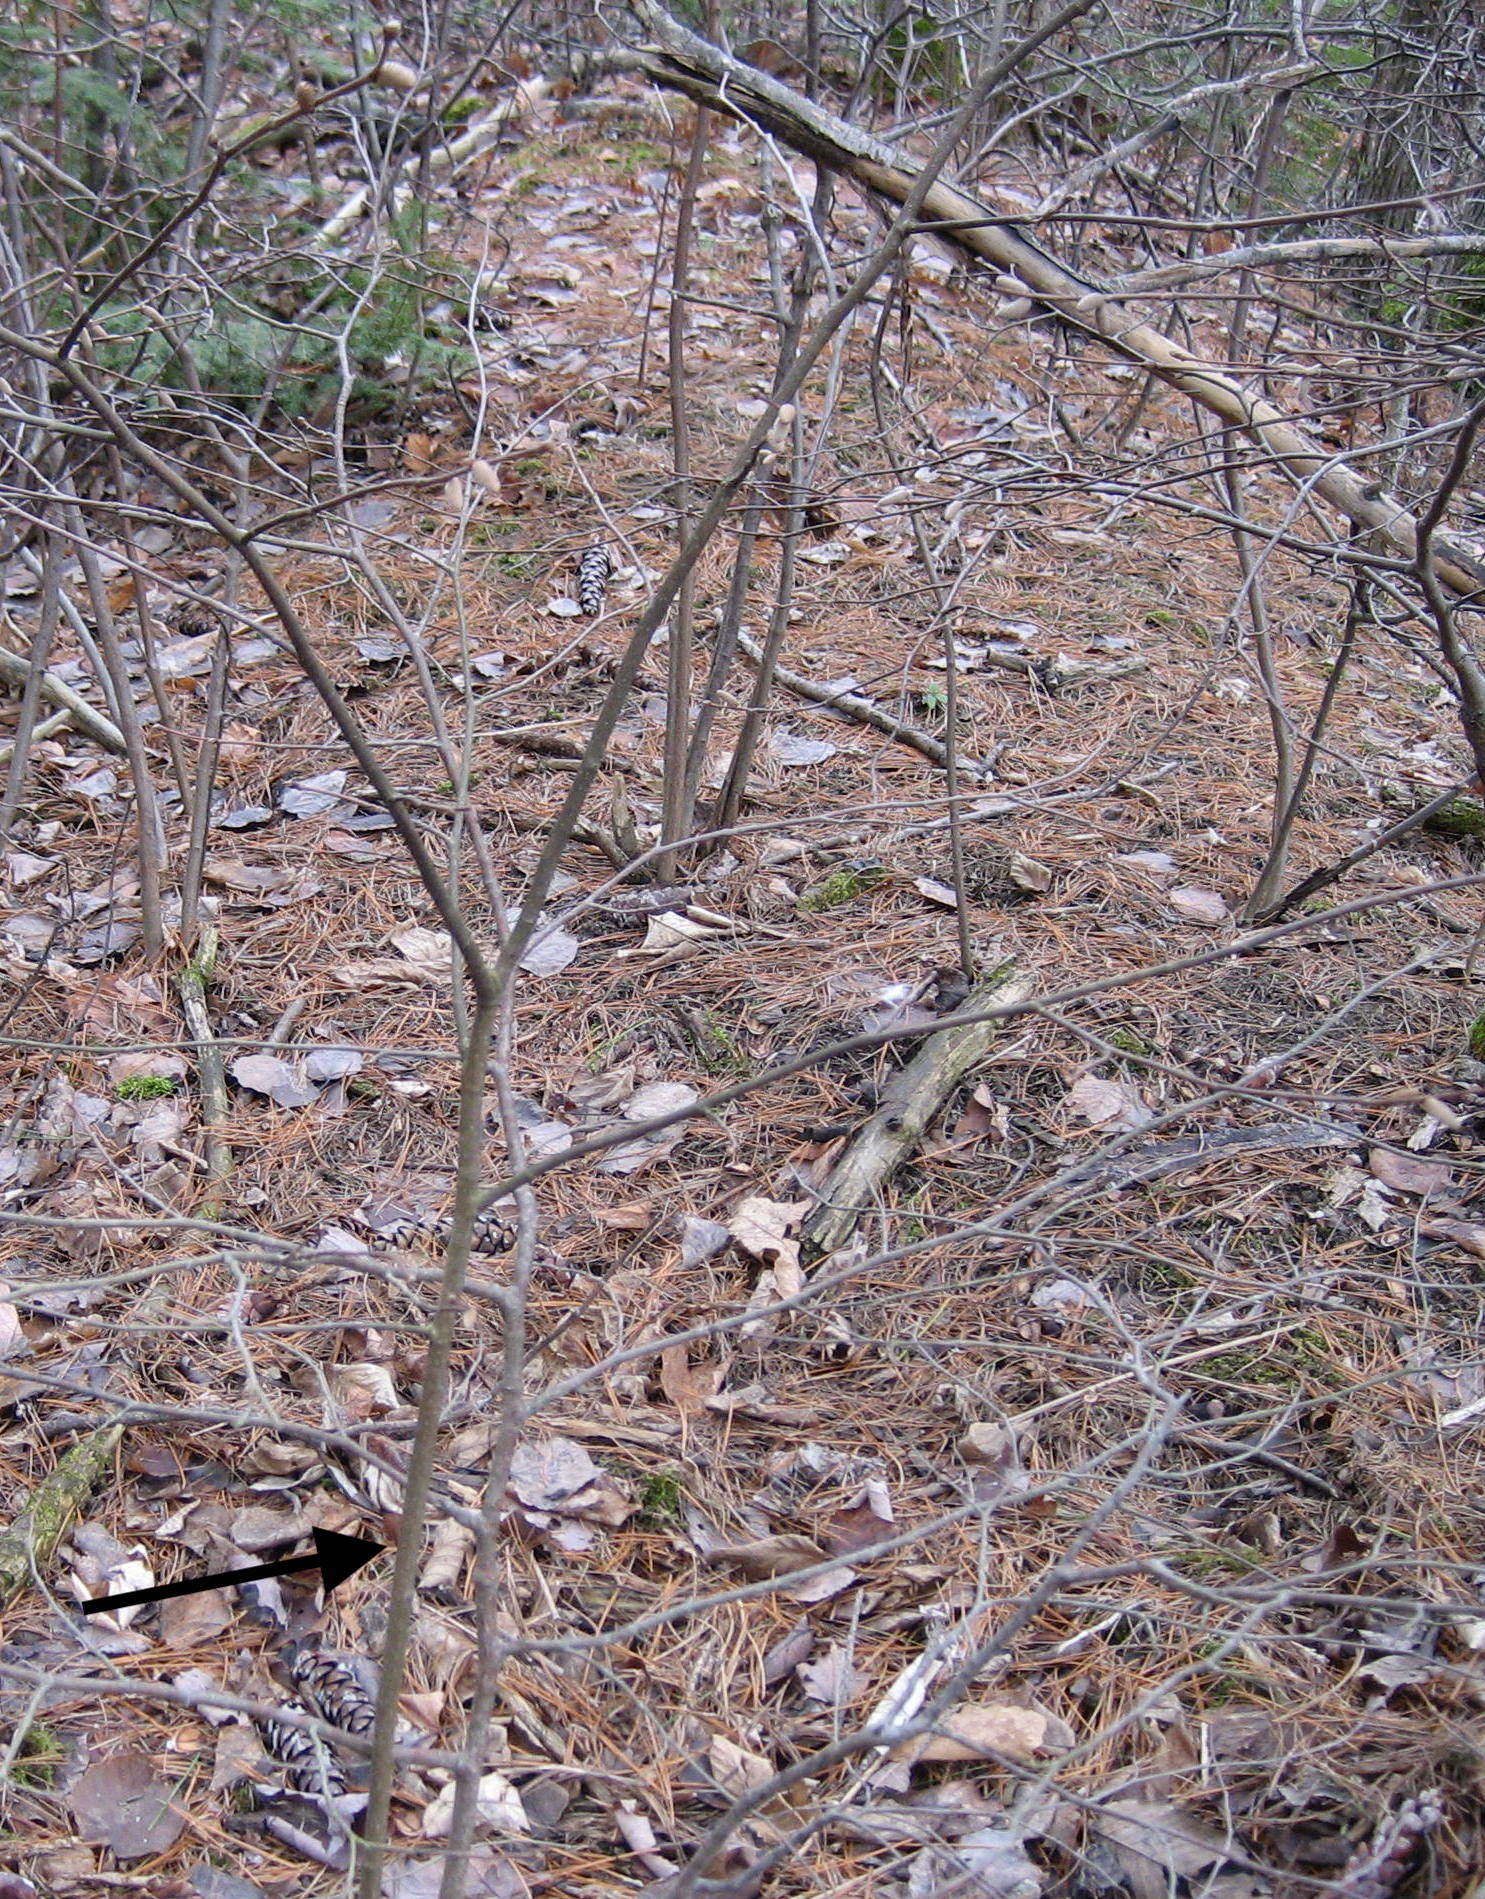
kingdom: Plantae
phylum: Tracheophyta
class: Magnoliopsida
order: Fagales
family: Betulaceae
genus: Corylus
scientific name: Corylus cornuta
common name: Beaked hazel
